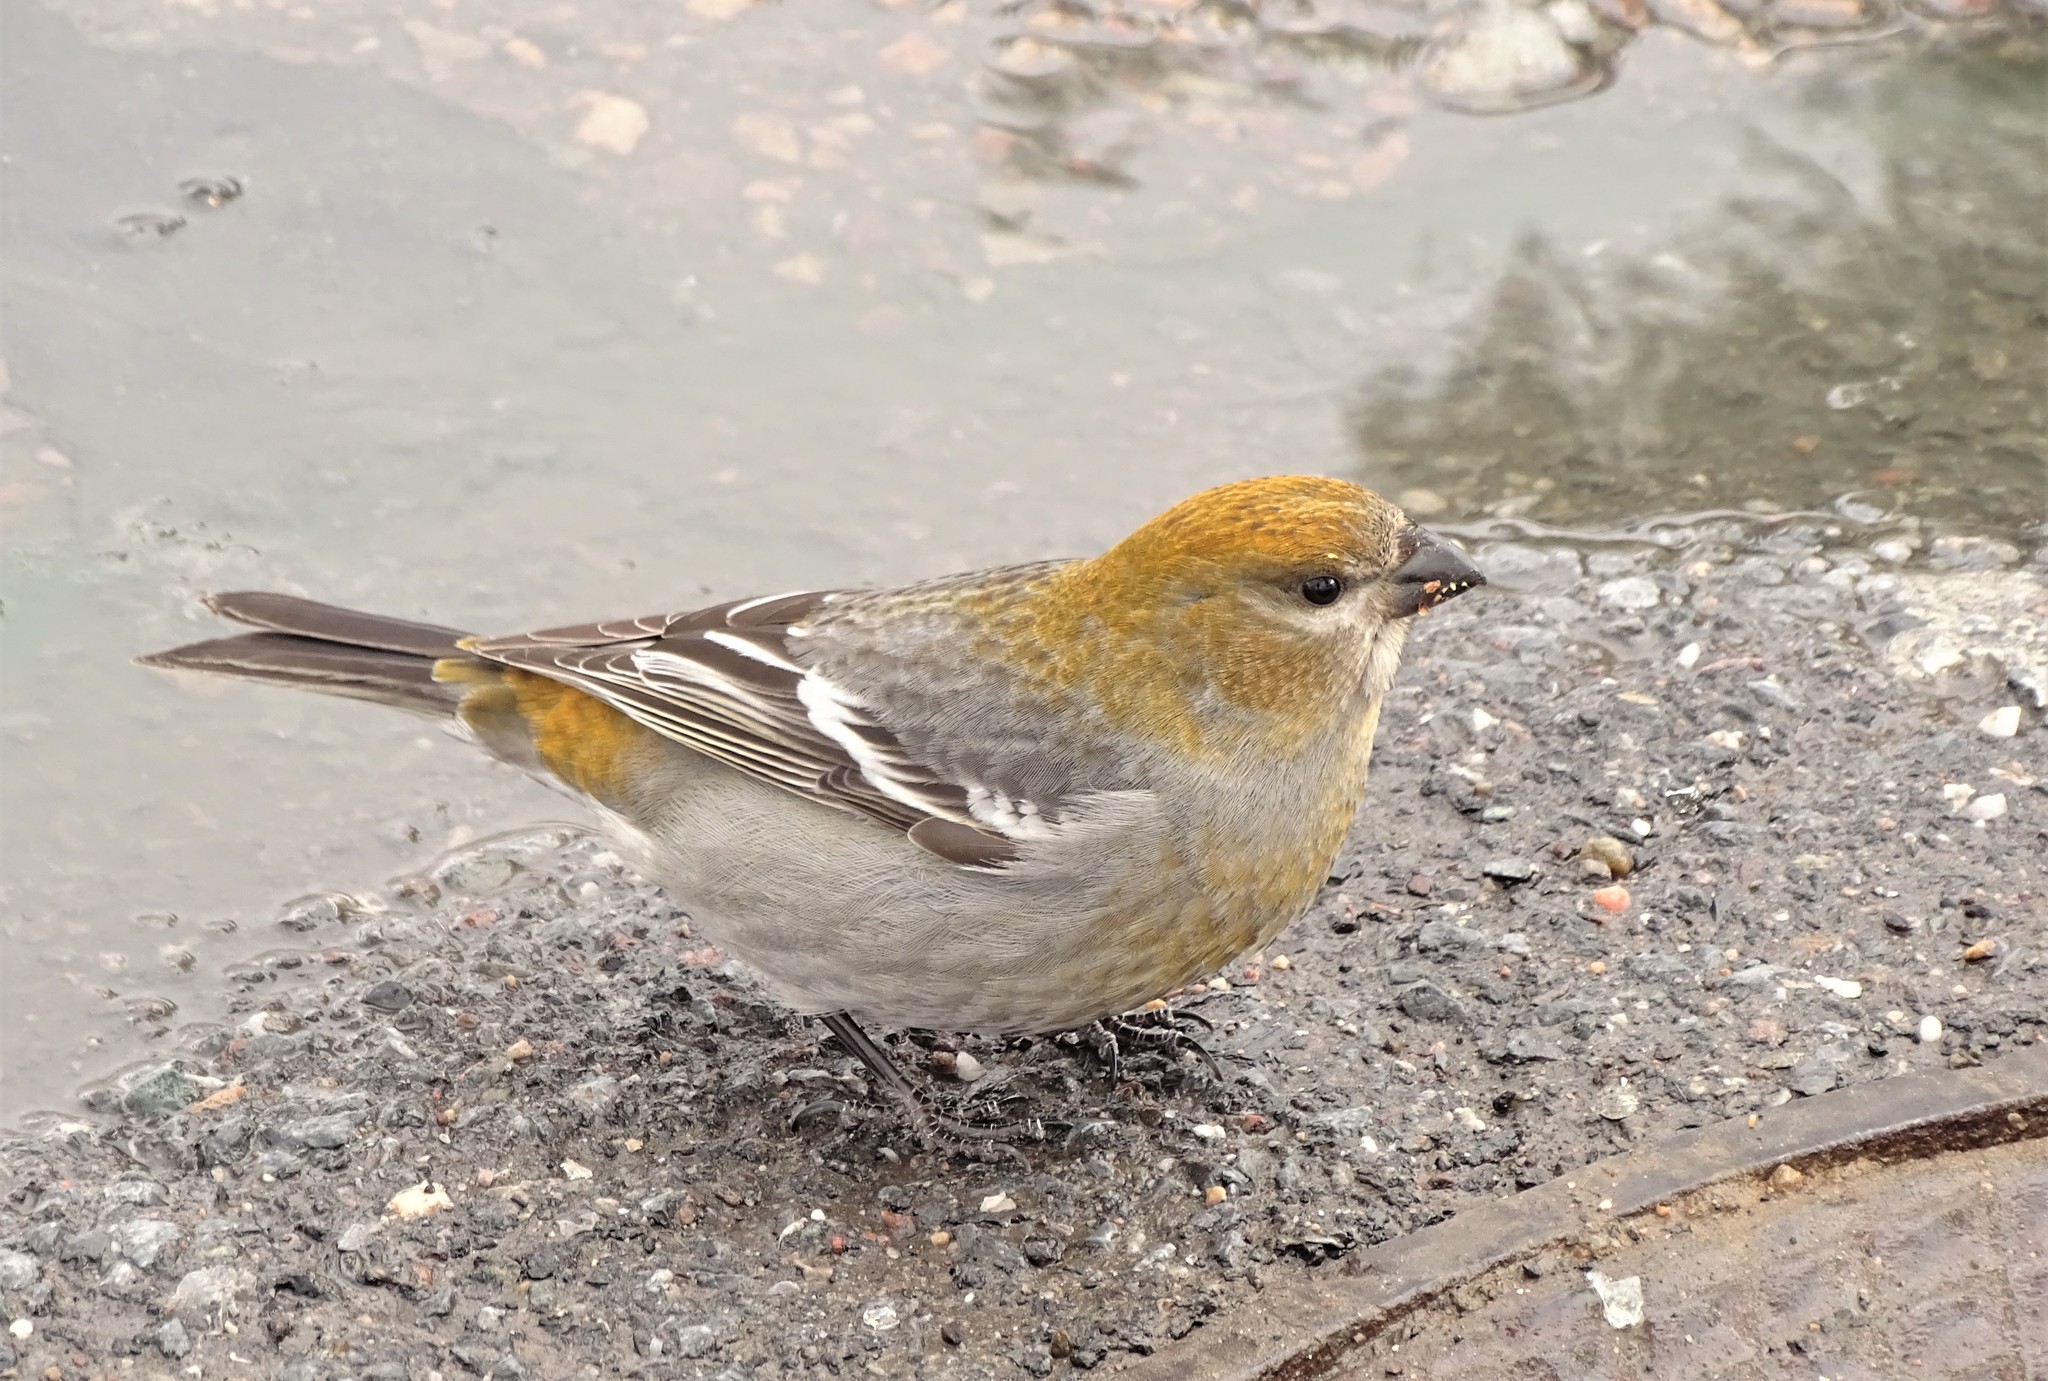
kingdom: Animalia
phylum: Chordata
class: Aves
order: Passeriformes
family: Fringillidae
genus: Pinicola
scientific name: Pinicola enucleator
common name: Pine grosbeak
